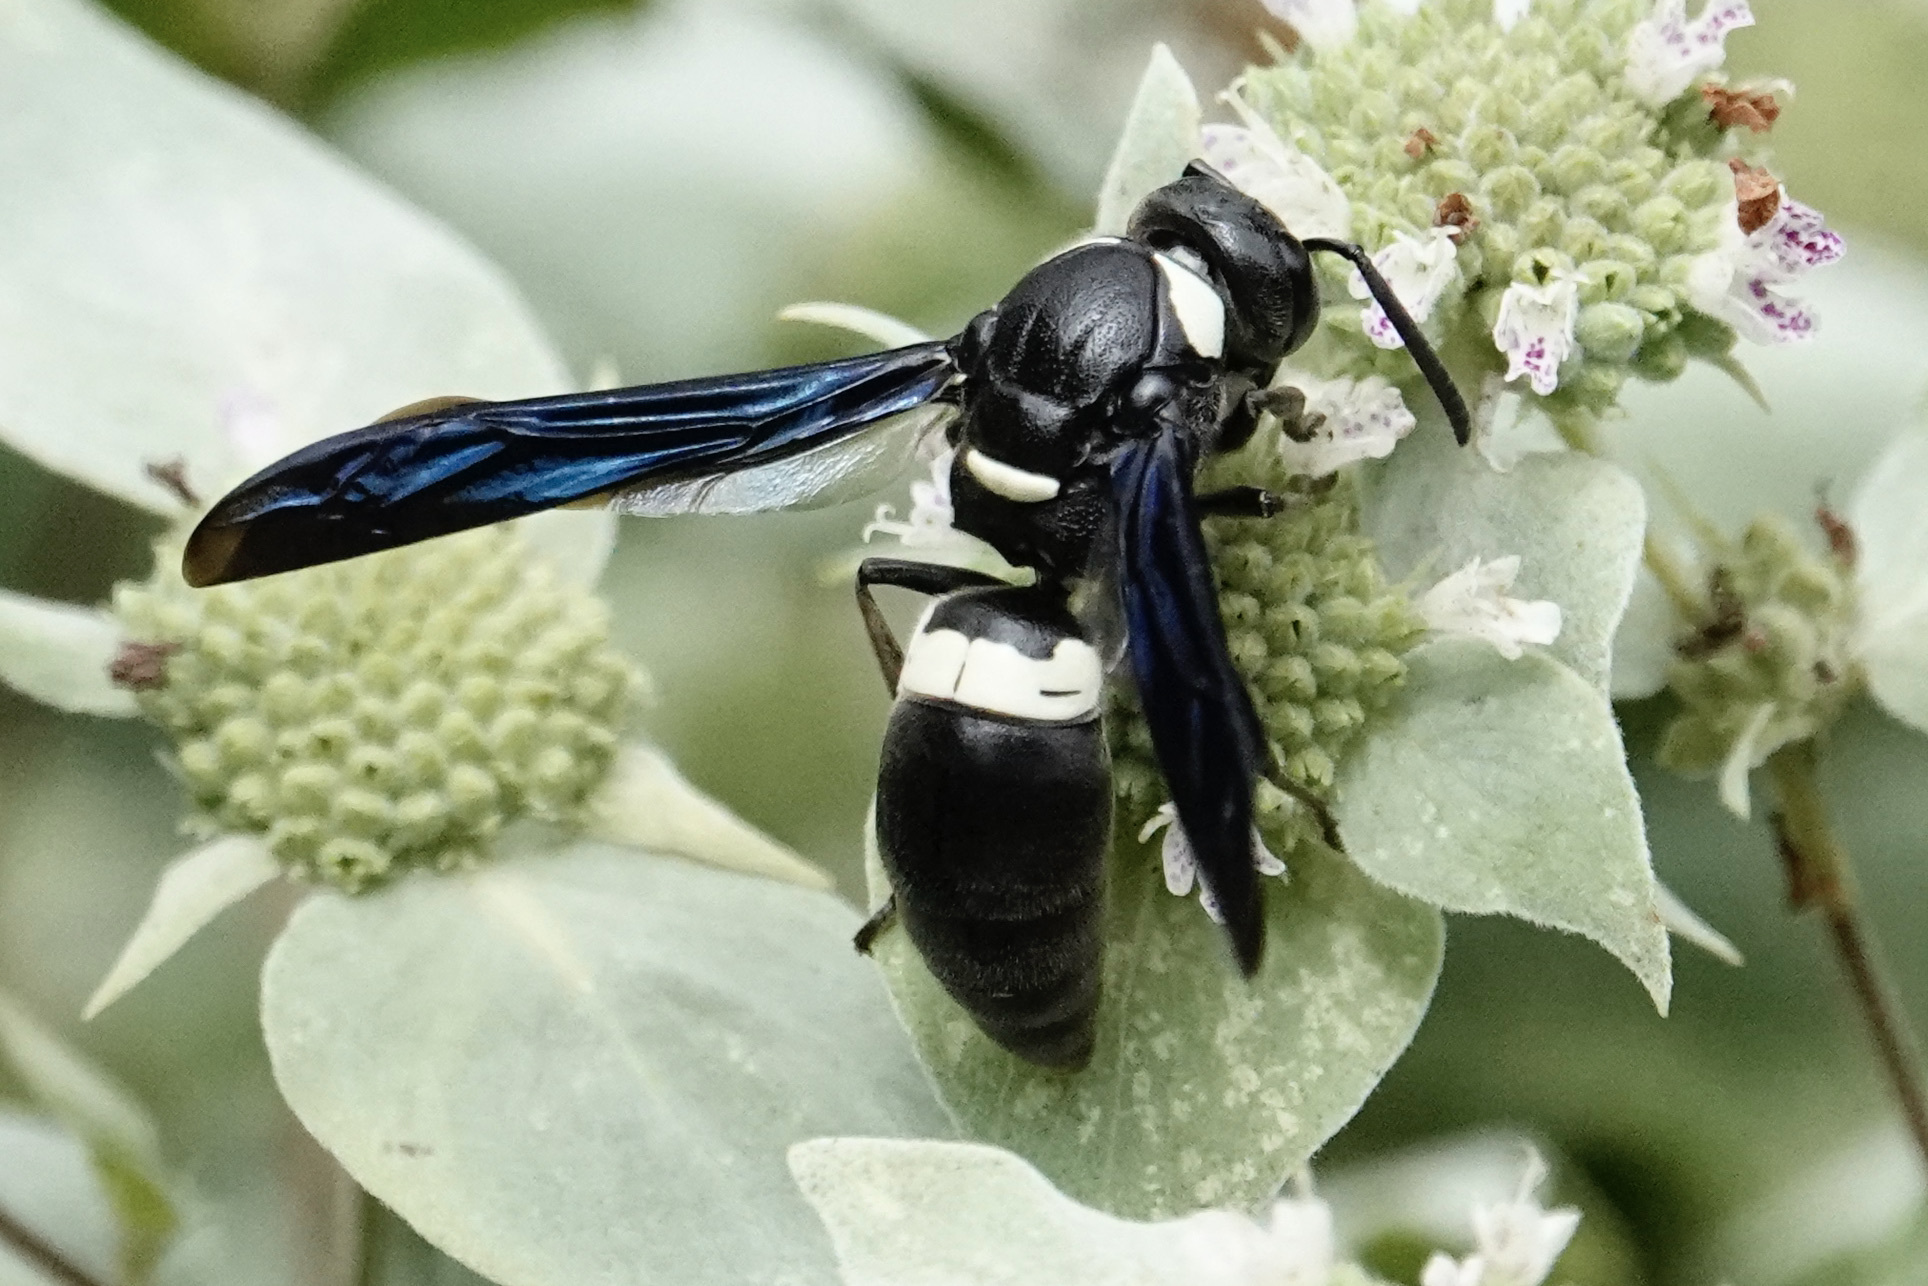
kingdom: Animalia
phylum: Arthropoda
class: Insecta
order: Hymenoptera
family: Eumenidae
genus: Monobia
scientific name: Monobia quadridens
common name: Four-toothed mason wasp
